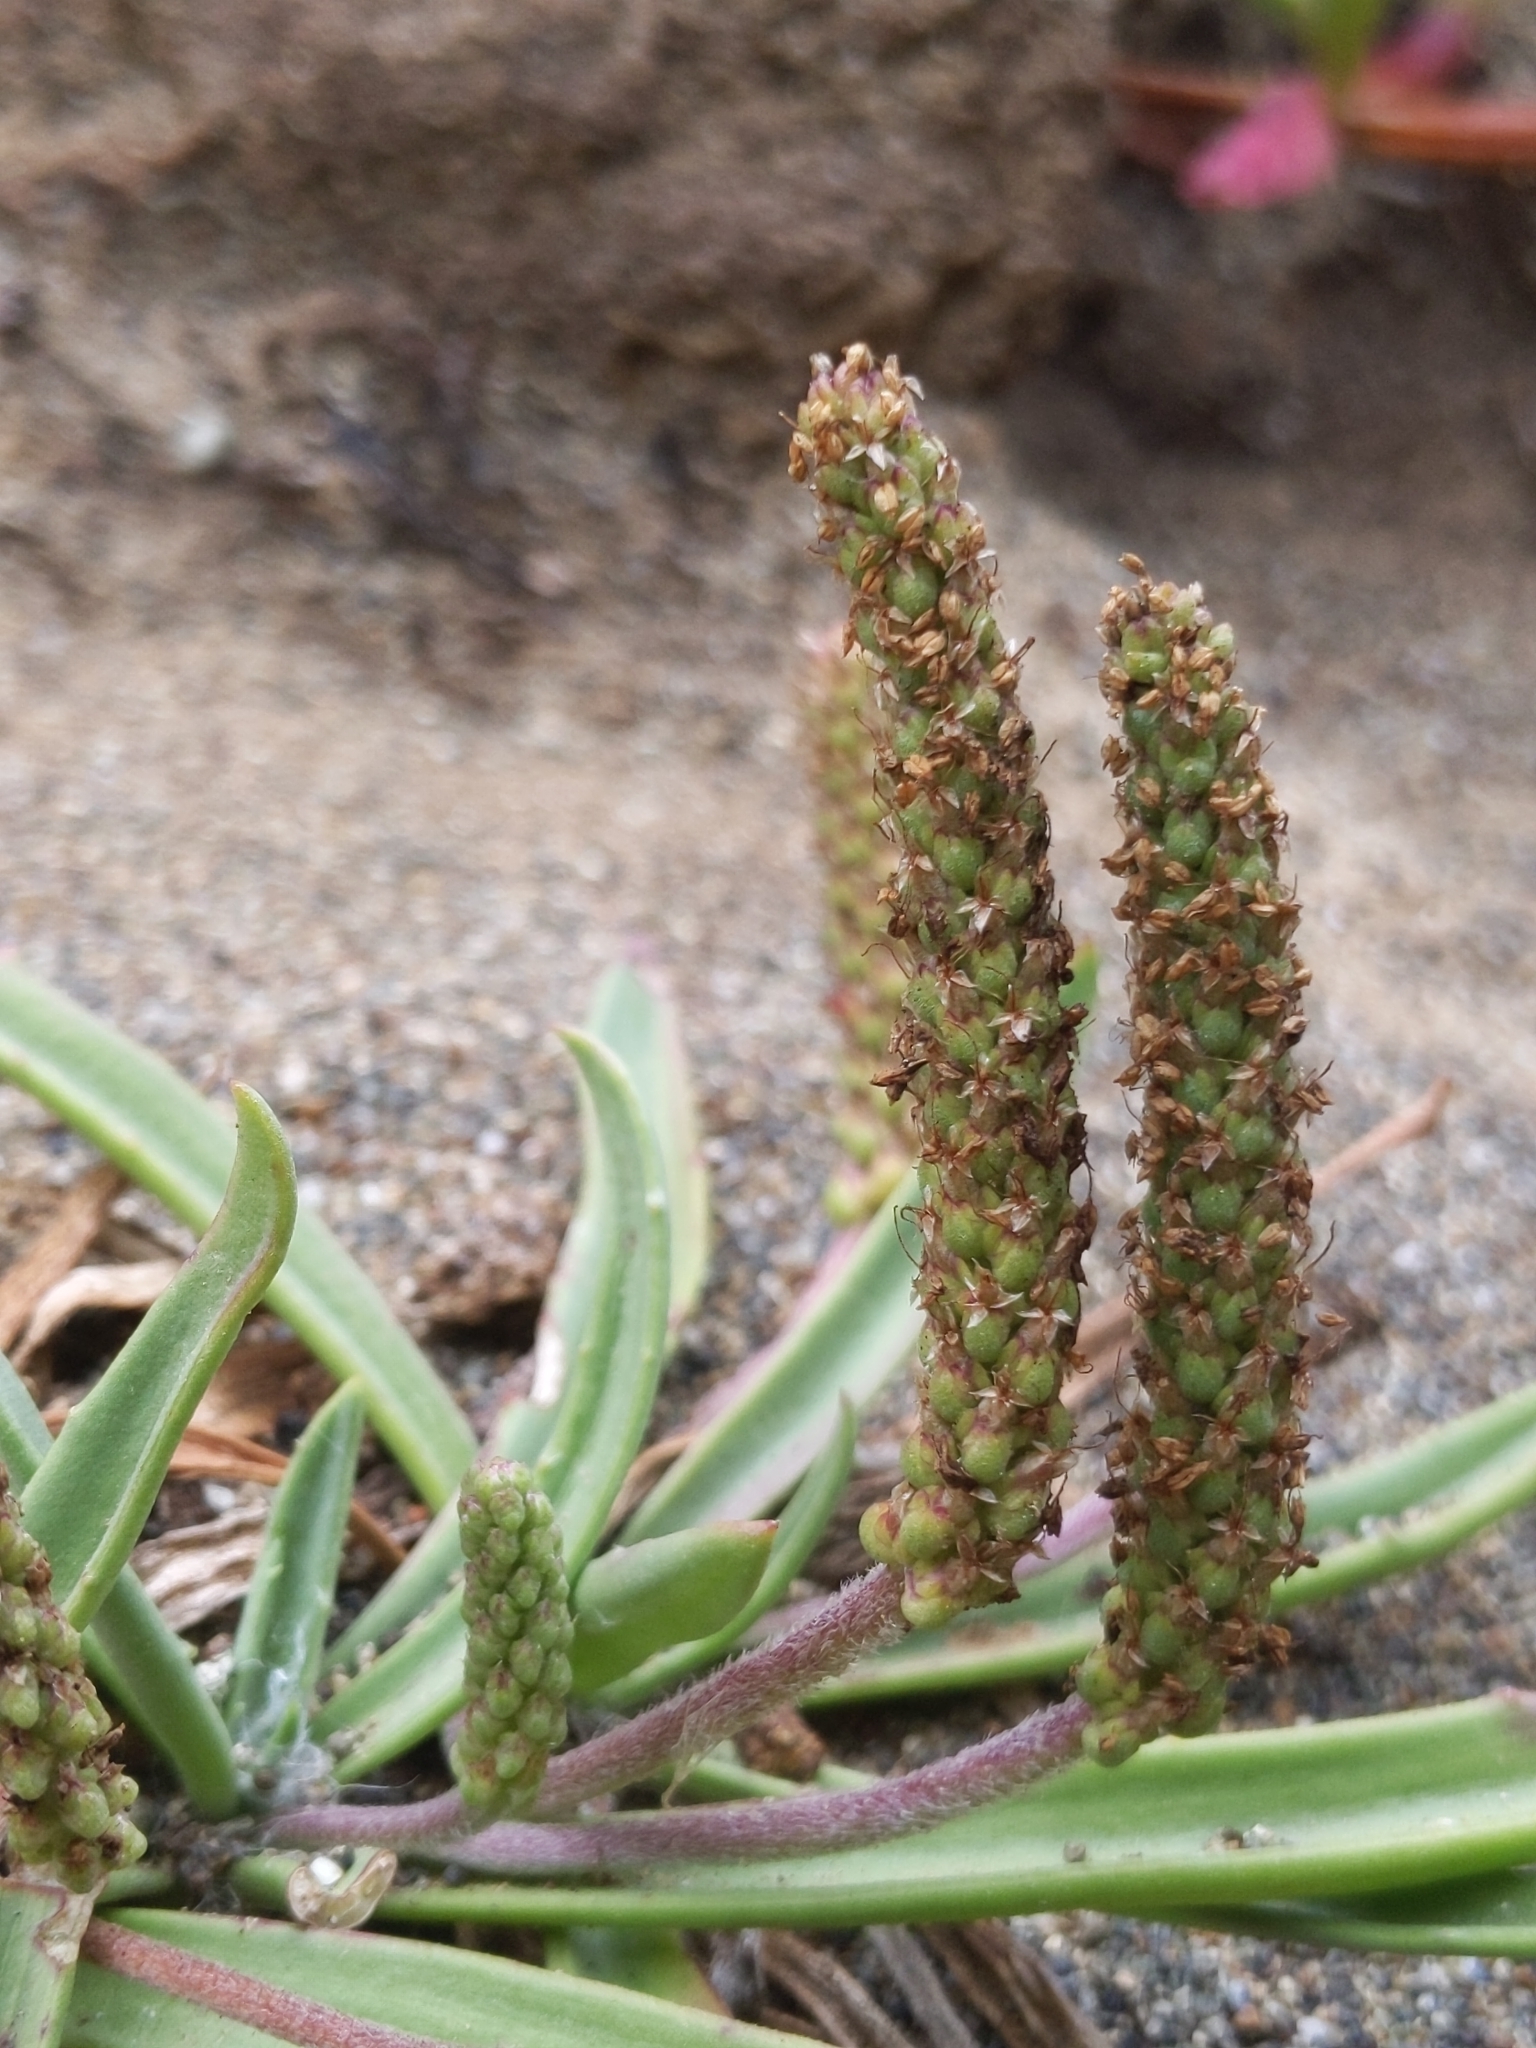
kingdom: Plantae
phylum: Tracheophyta
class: Magnoliopsida
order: Lamiales
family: Plantaginaceae
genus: Plantago
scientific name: Plantago maritima
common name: Sea plantain
